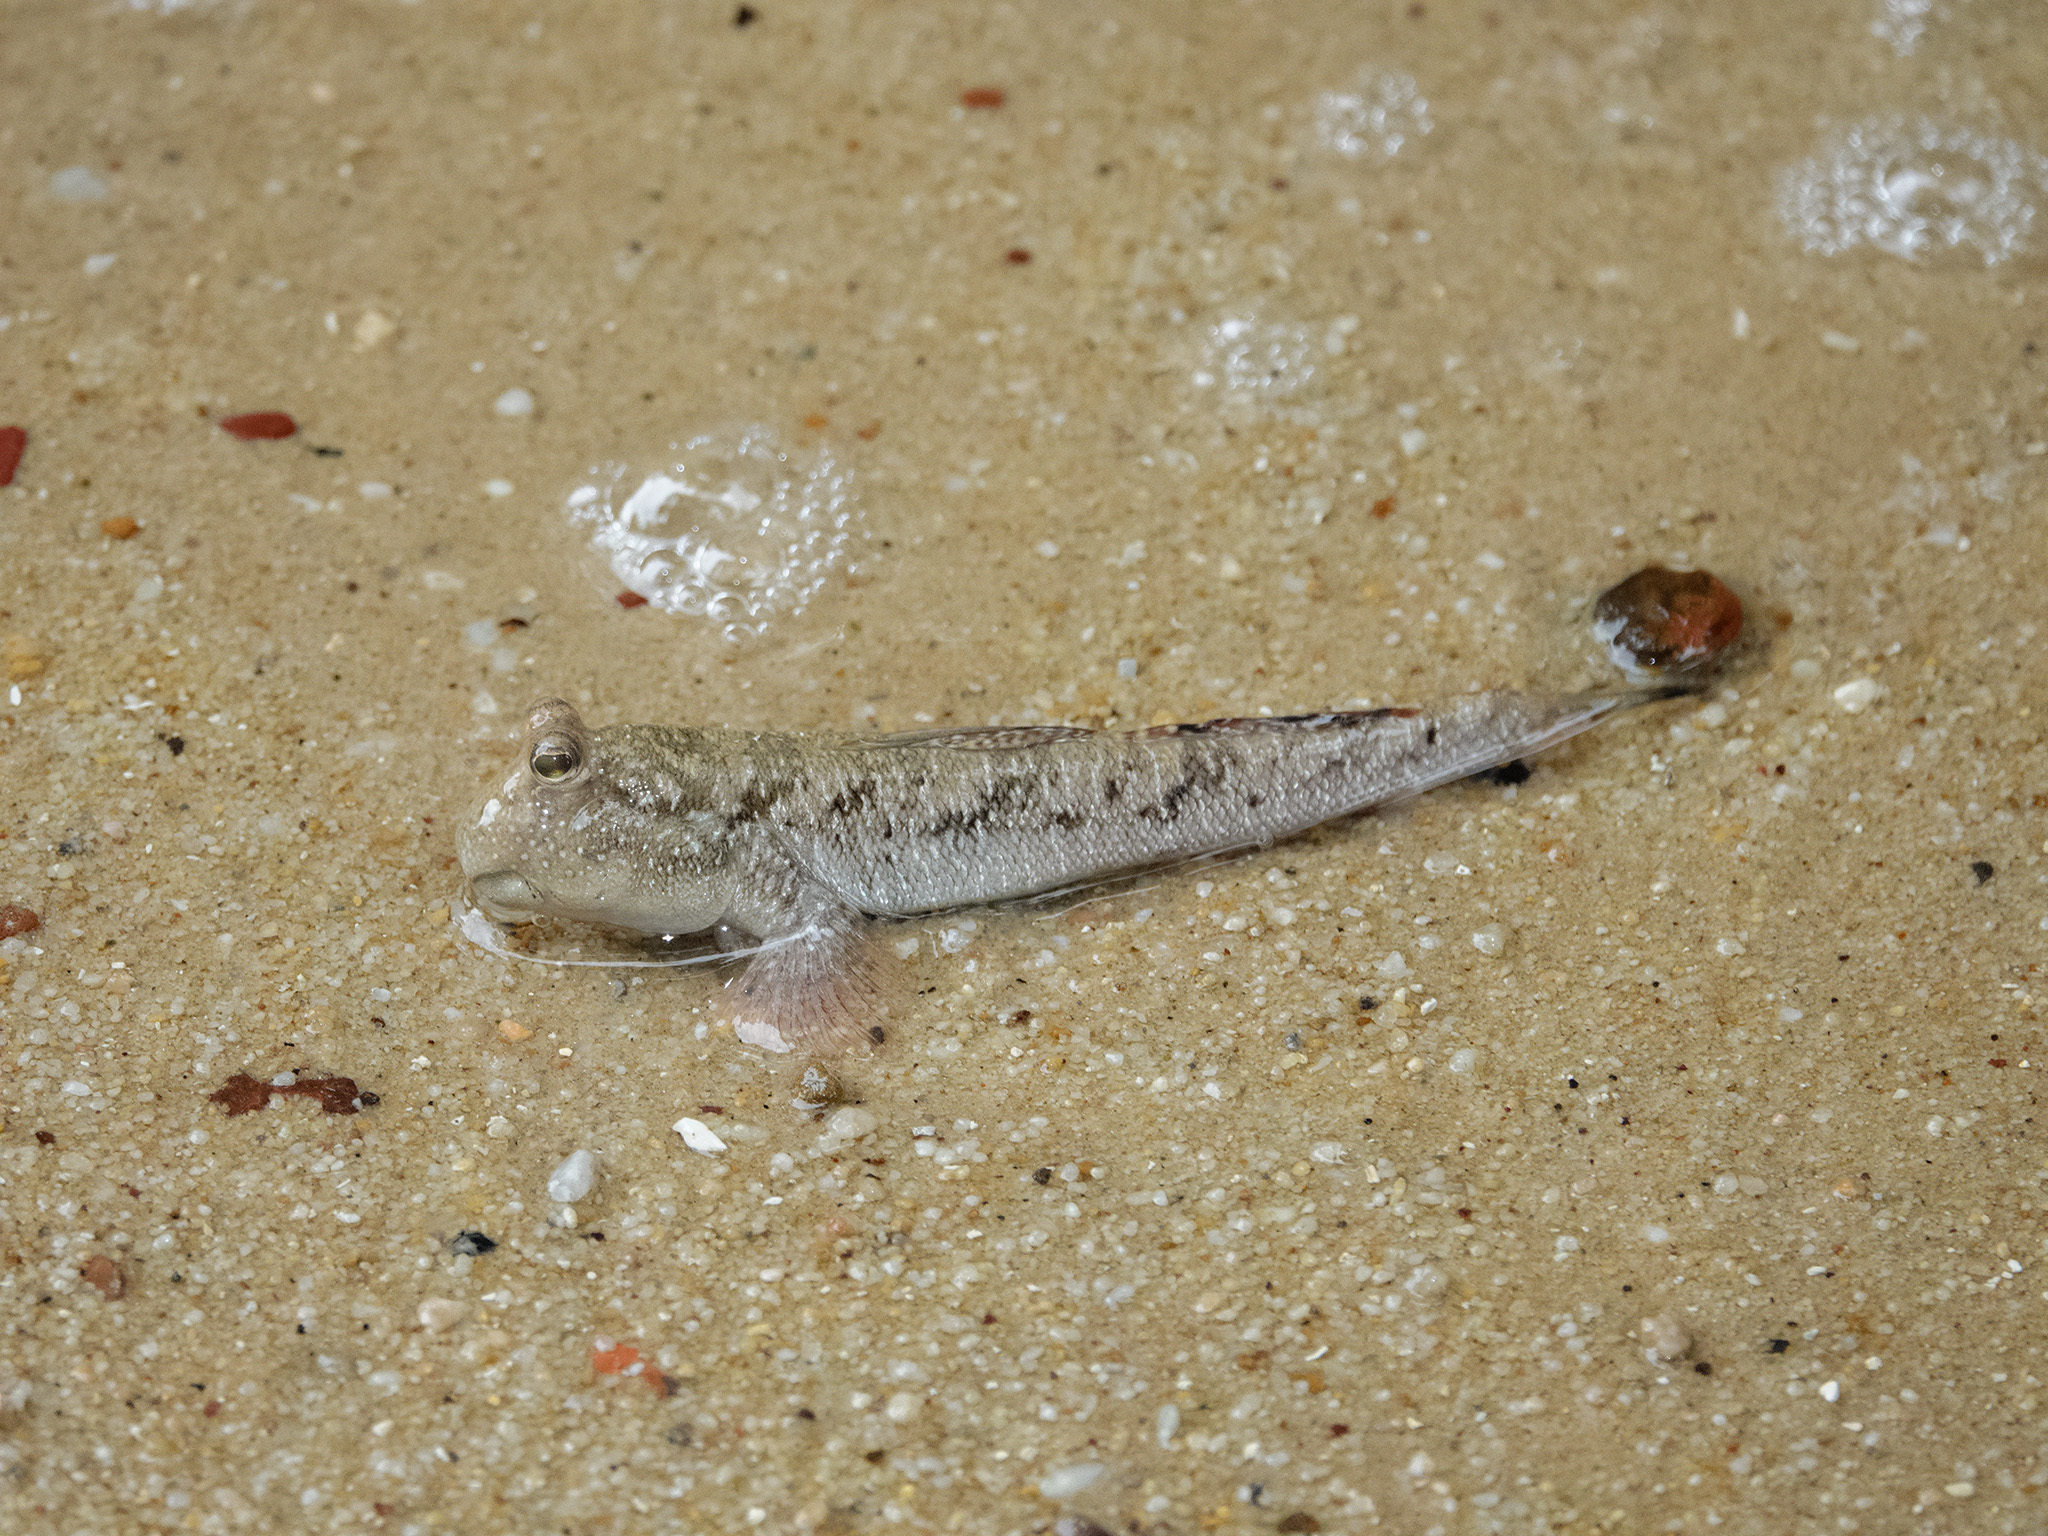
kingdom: Animalia
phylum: Chordata
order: Perciformes
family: Gobiidae
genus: Periophthalmus
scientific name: Periophthalmus argentilineatus
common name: Barred mudskipper
